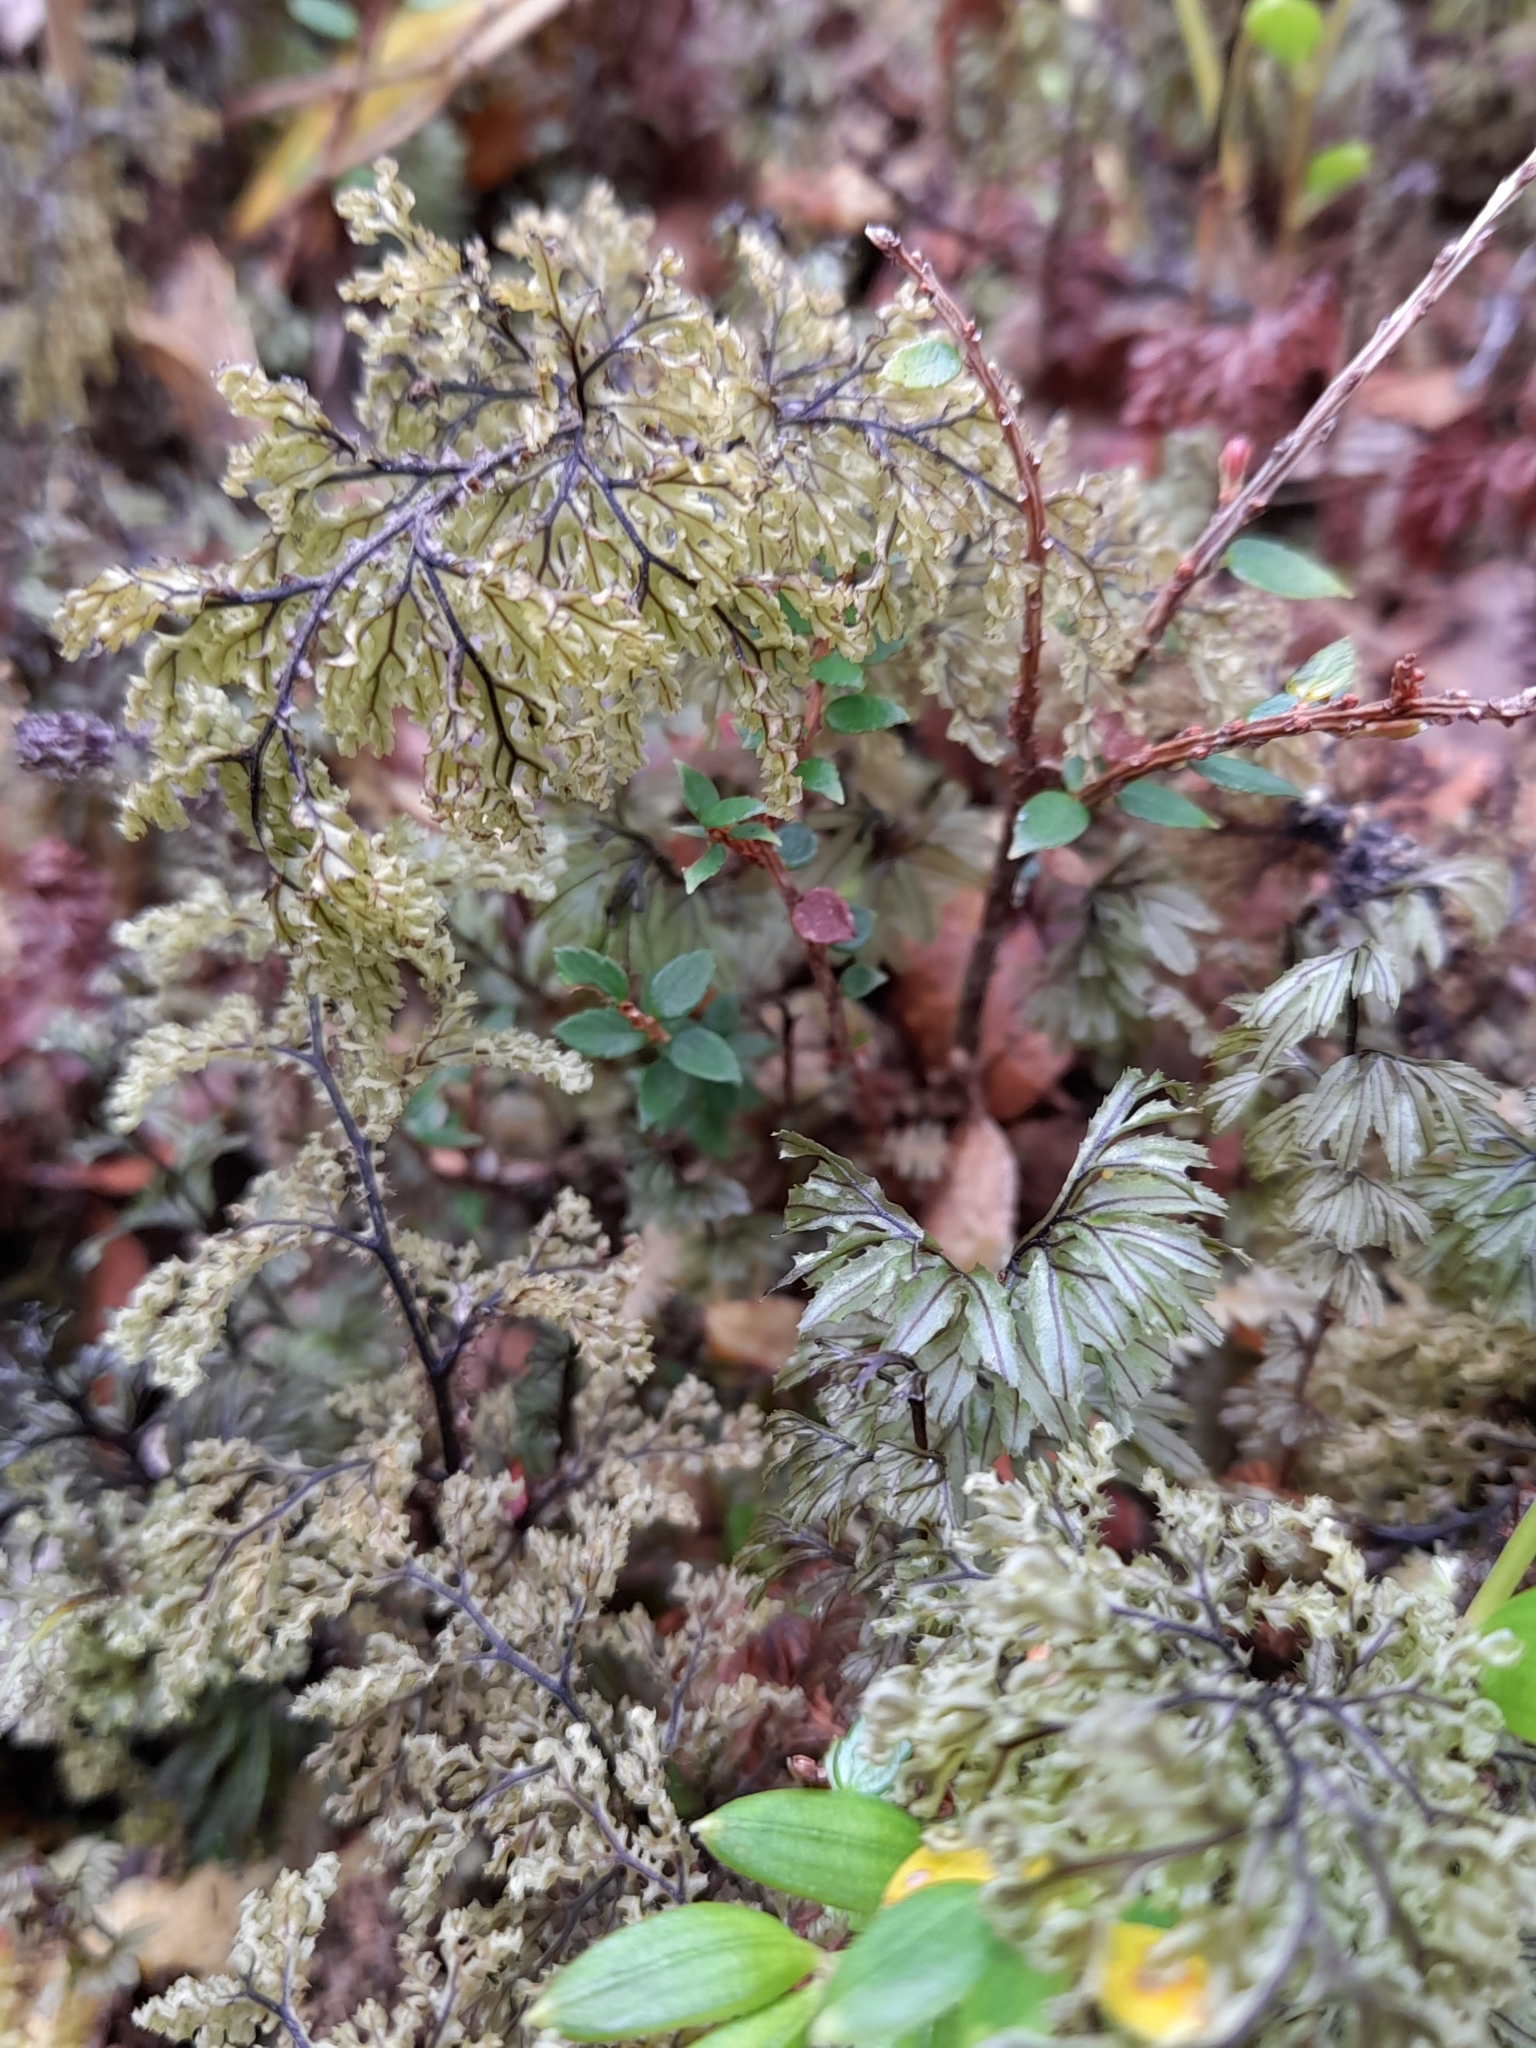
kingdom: Plantae
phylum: Tracheophyta
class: Polypodiopsida
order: Hymenophyllales
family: Hymenophyllaceae
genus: Hymenophyllum
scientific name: Hymenophyllum seselifolium
